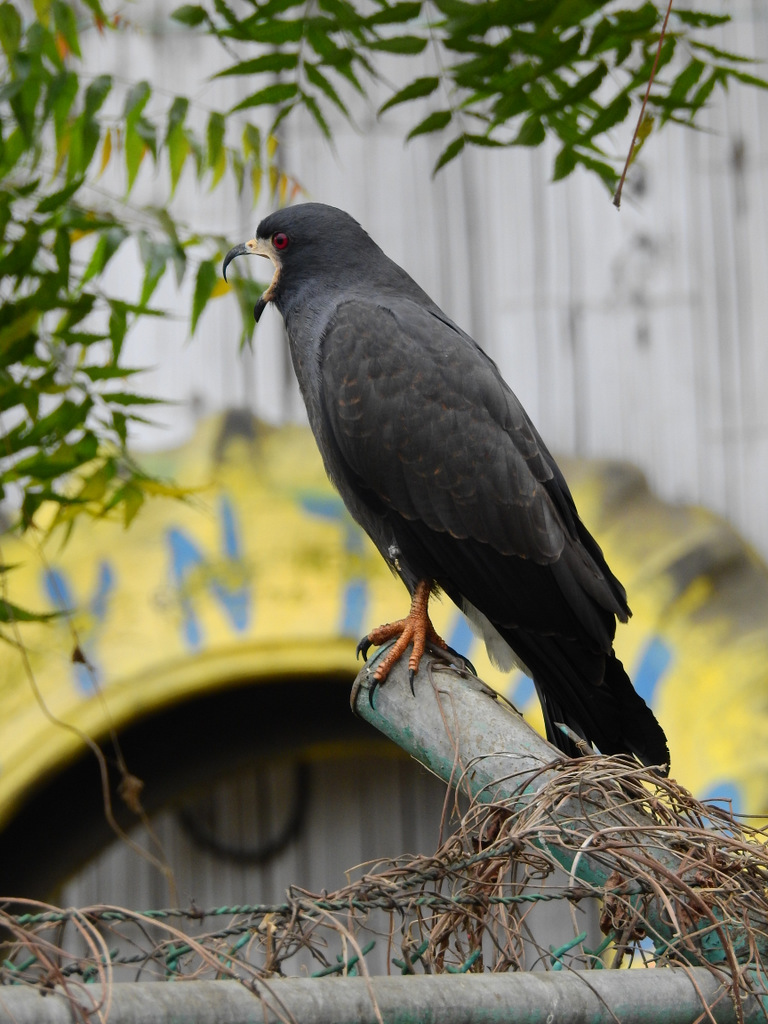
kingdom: Animalia
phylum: Chordata
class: Aves
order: Accipitriformes
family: Accipitridae
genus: Rostrhamus
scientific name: Rostrhamus sociabilis
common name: Snail kite
